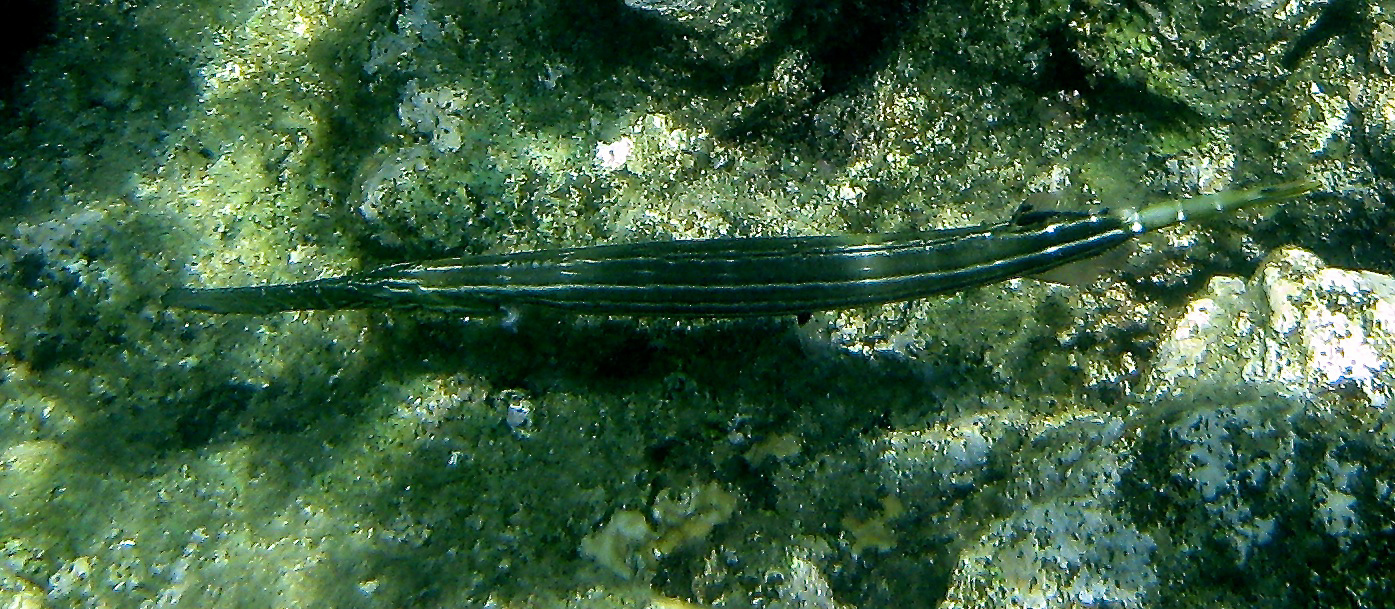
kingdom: Animalia
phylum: Chordata
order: Syngnathiformes
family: Aulostomidae
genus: Aulostomus
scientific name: Aulostomus chinensis
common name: Chinese trumpetfish
